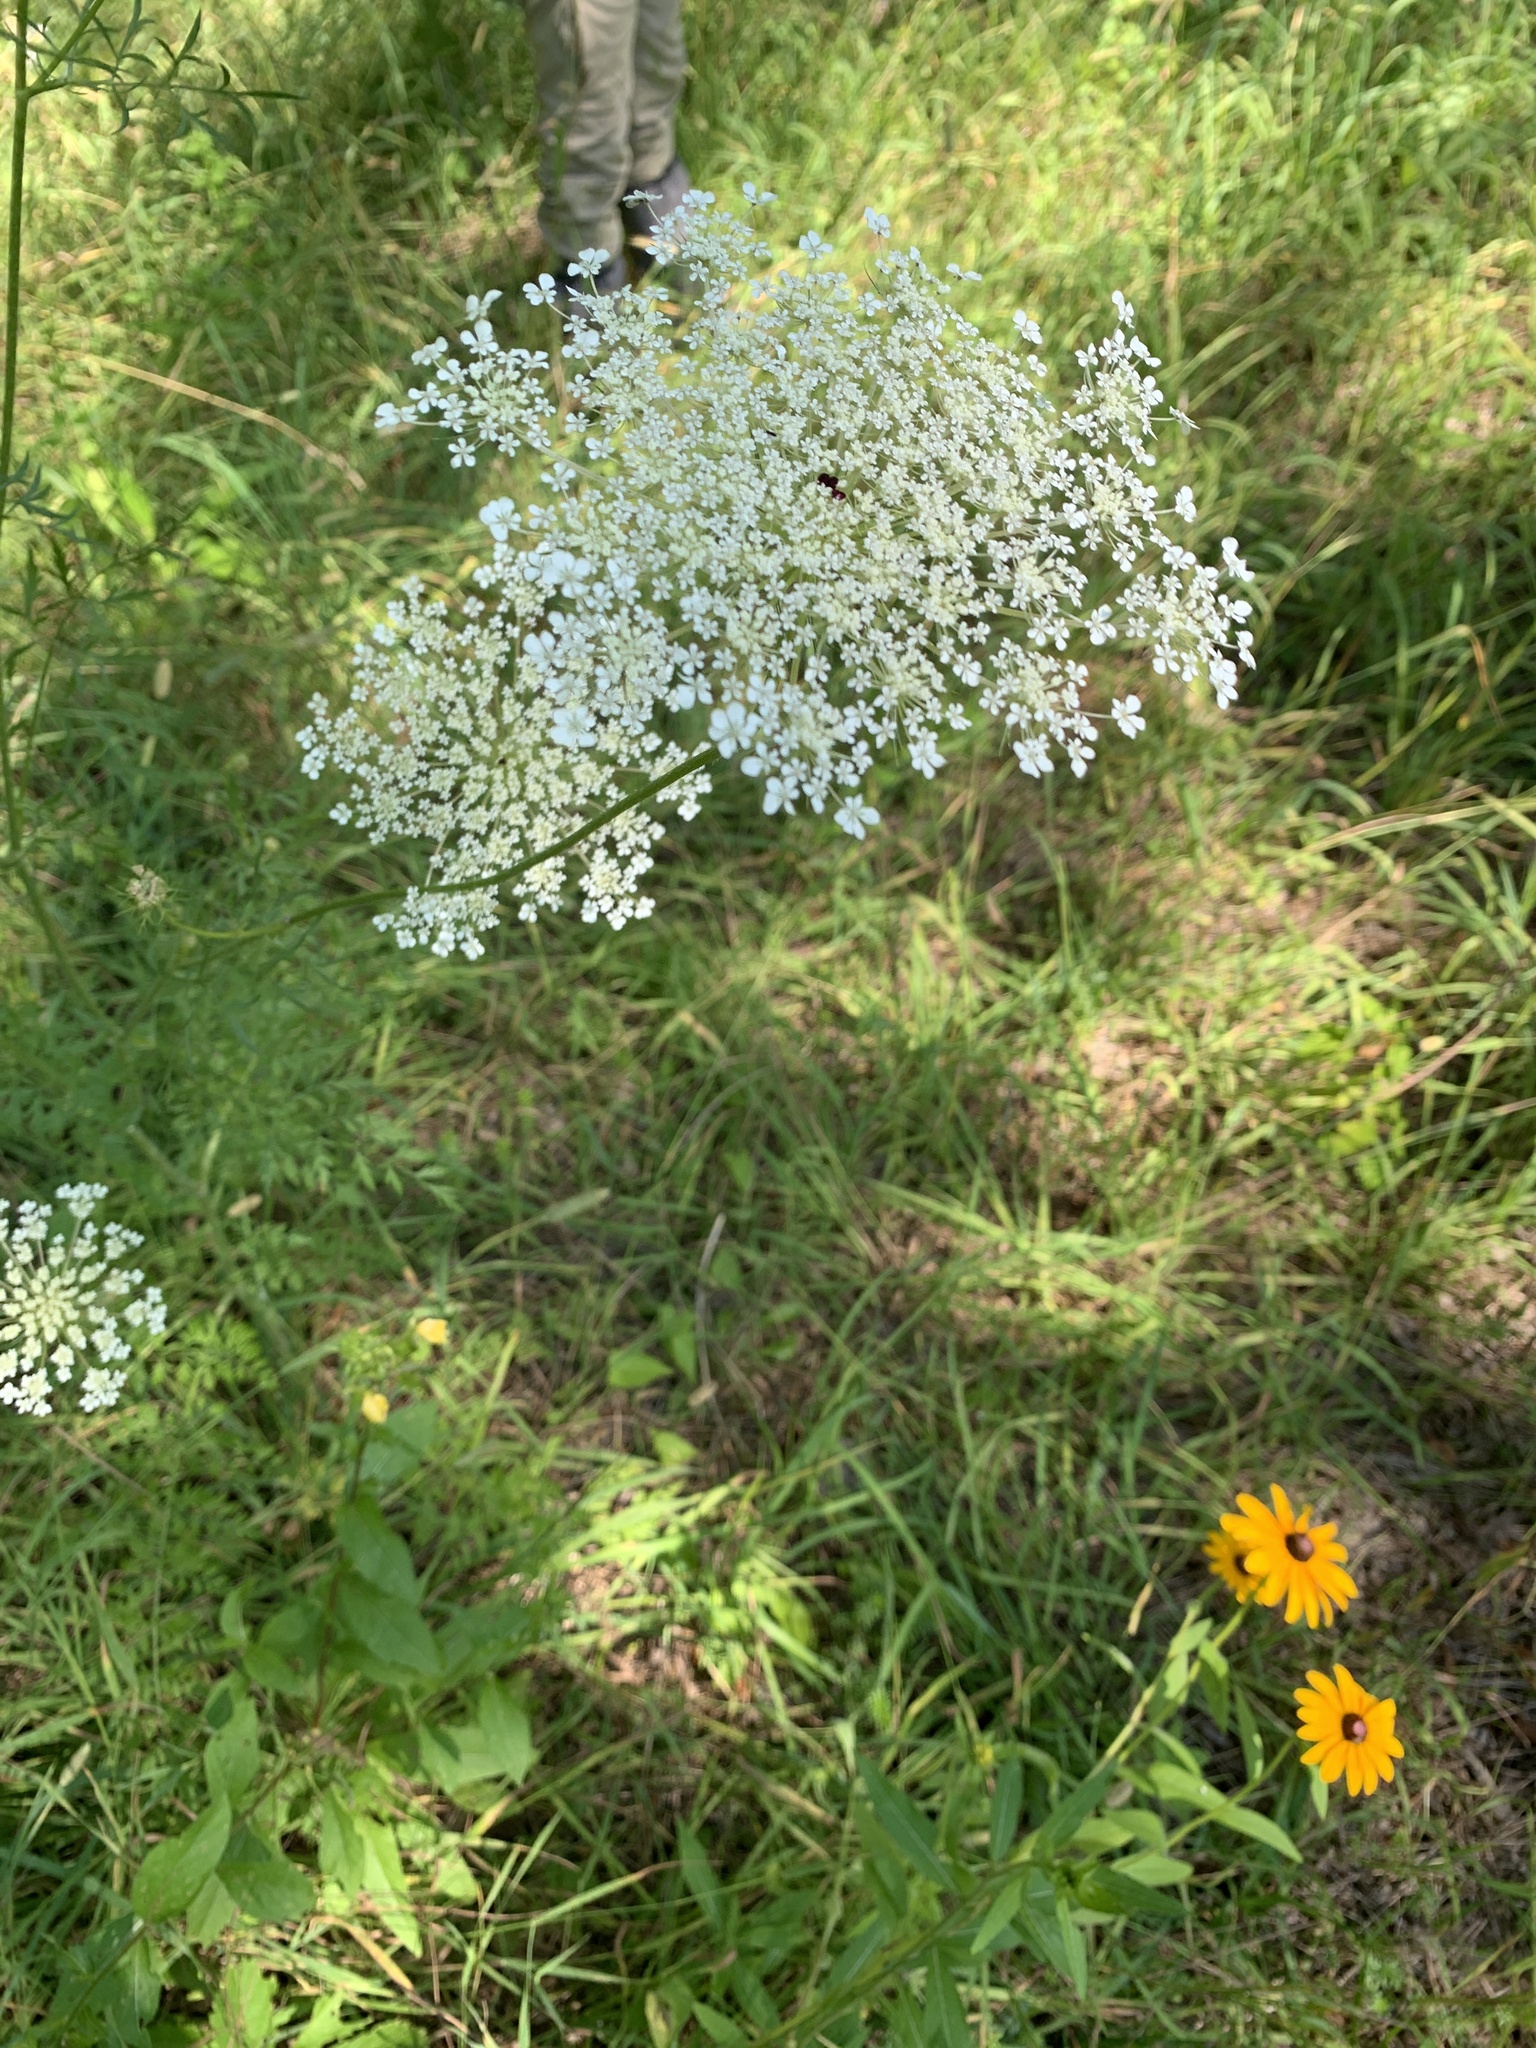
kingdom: Plantae
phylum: Tracheophyta
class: Magnoliopsida
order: Apiales
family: Apiaceae
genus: Daucus
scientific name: Daucus carota
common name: Wild carrot
